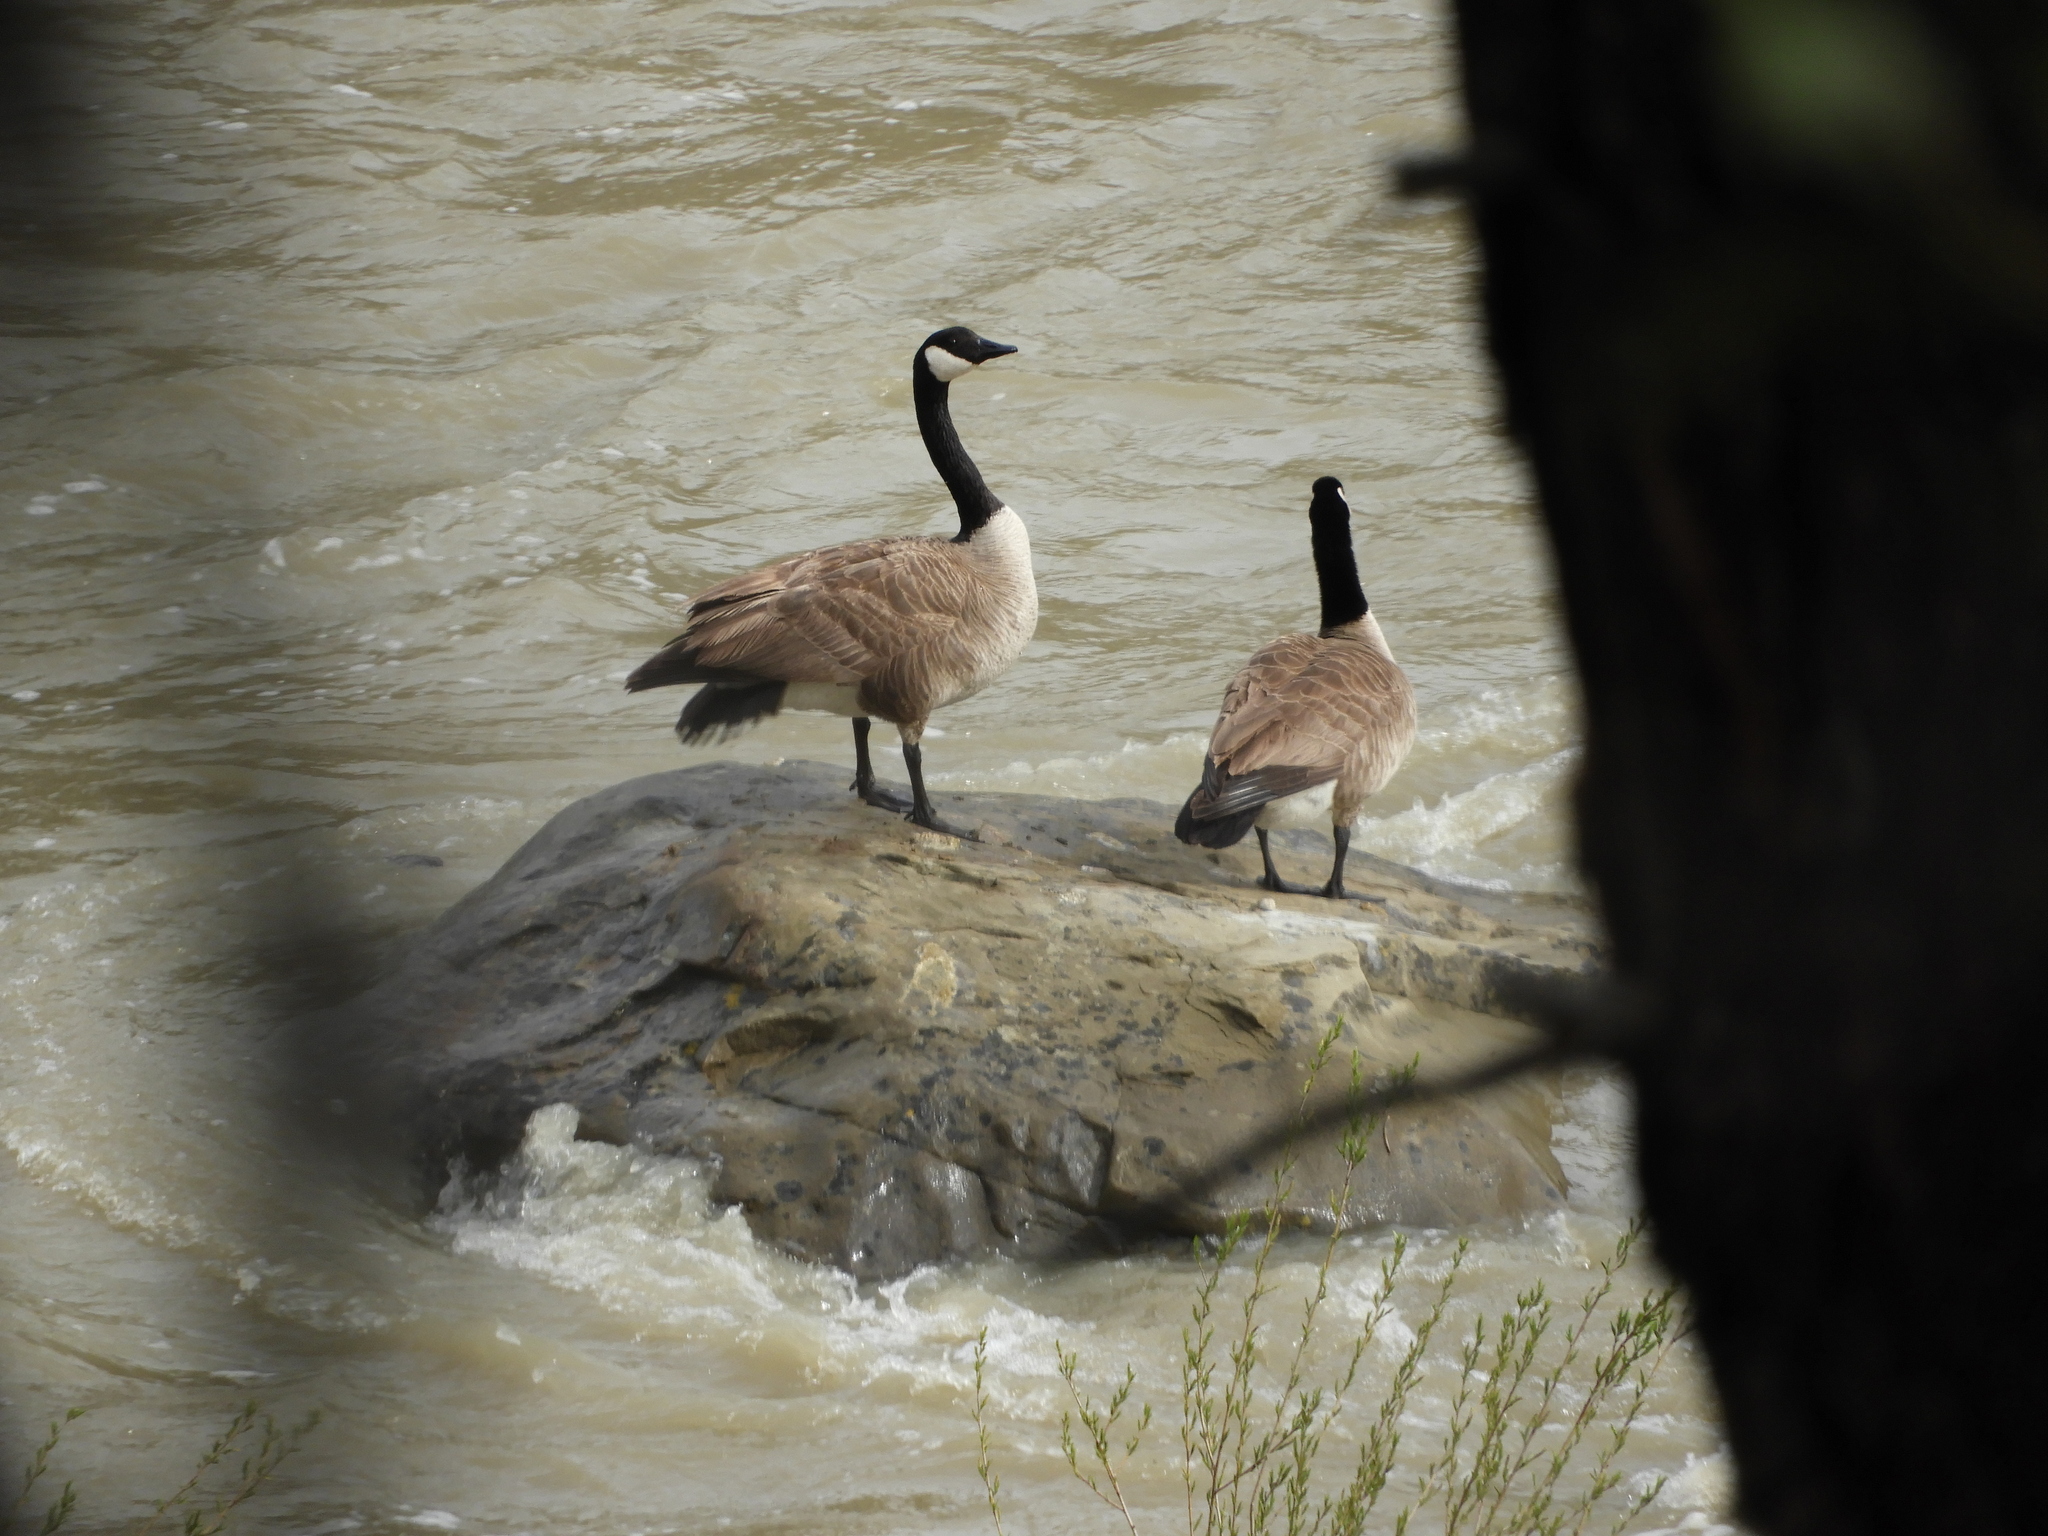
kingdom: Animalia
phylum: Chordata
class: Aves
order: Anseriformes
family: Anatidae
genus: Branta
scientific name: Branta canadensis
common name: Canada goose
